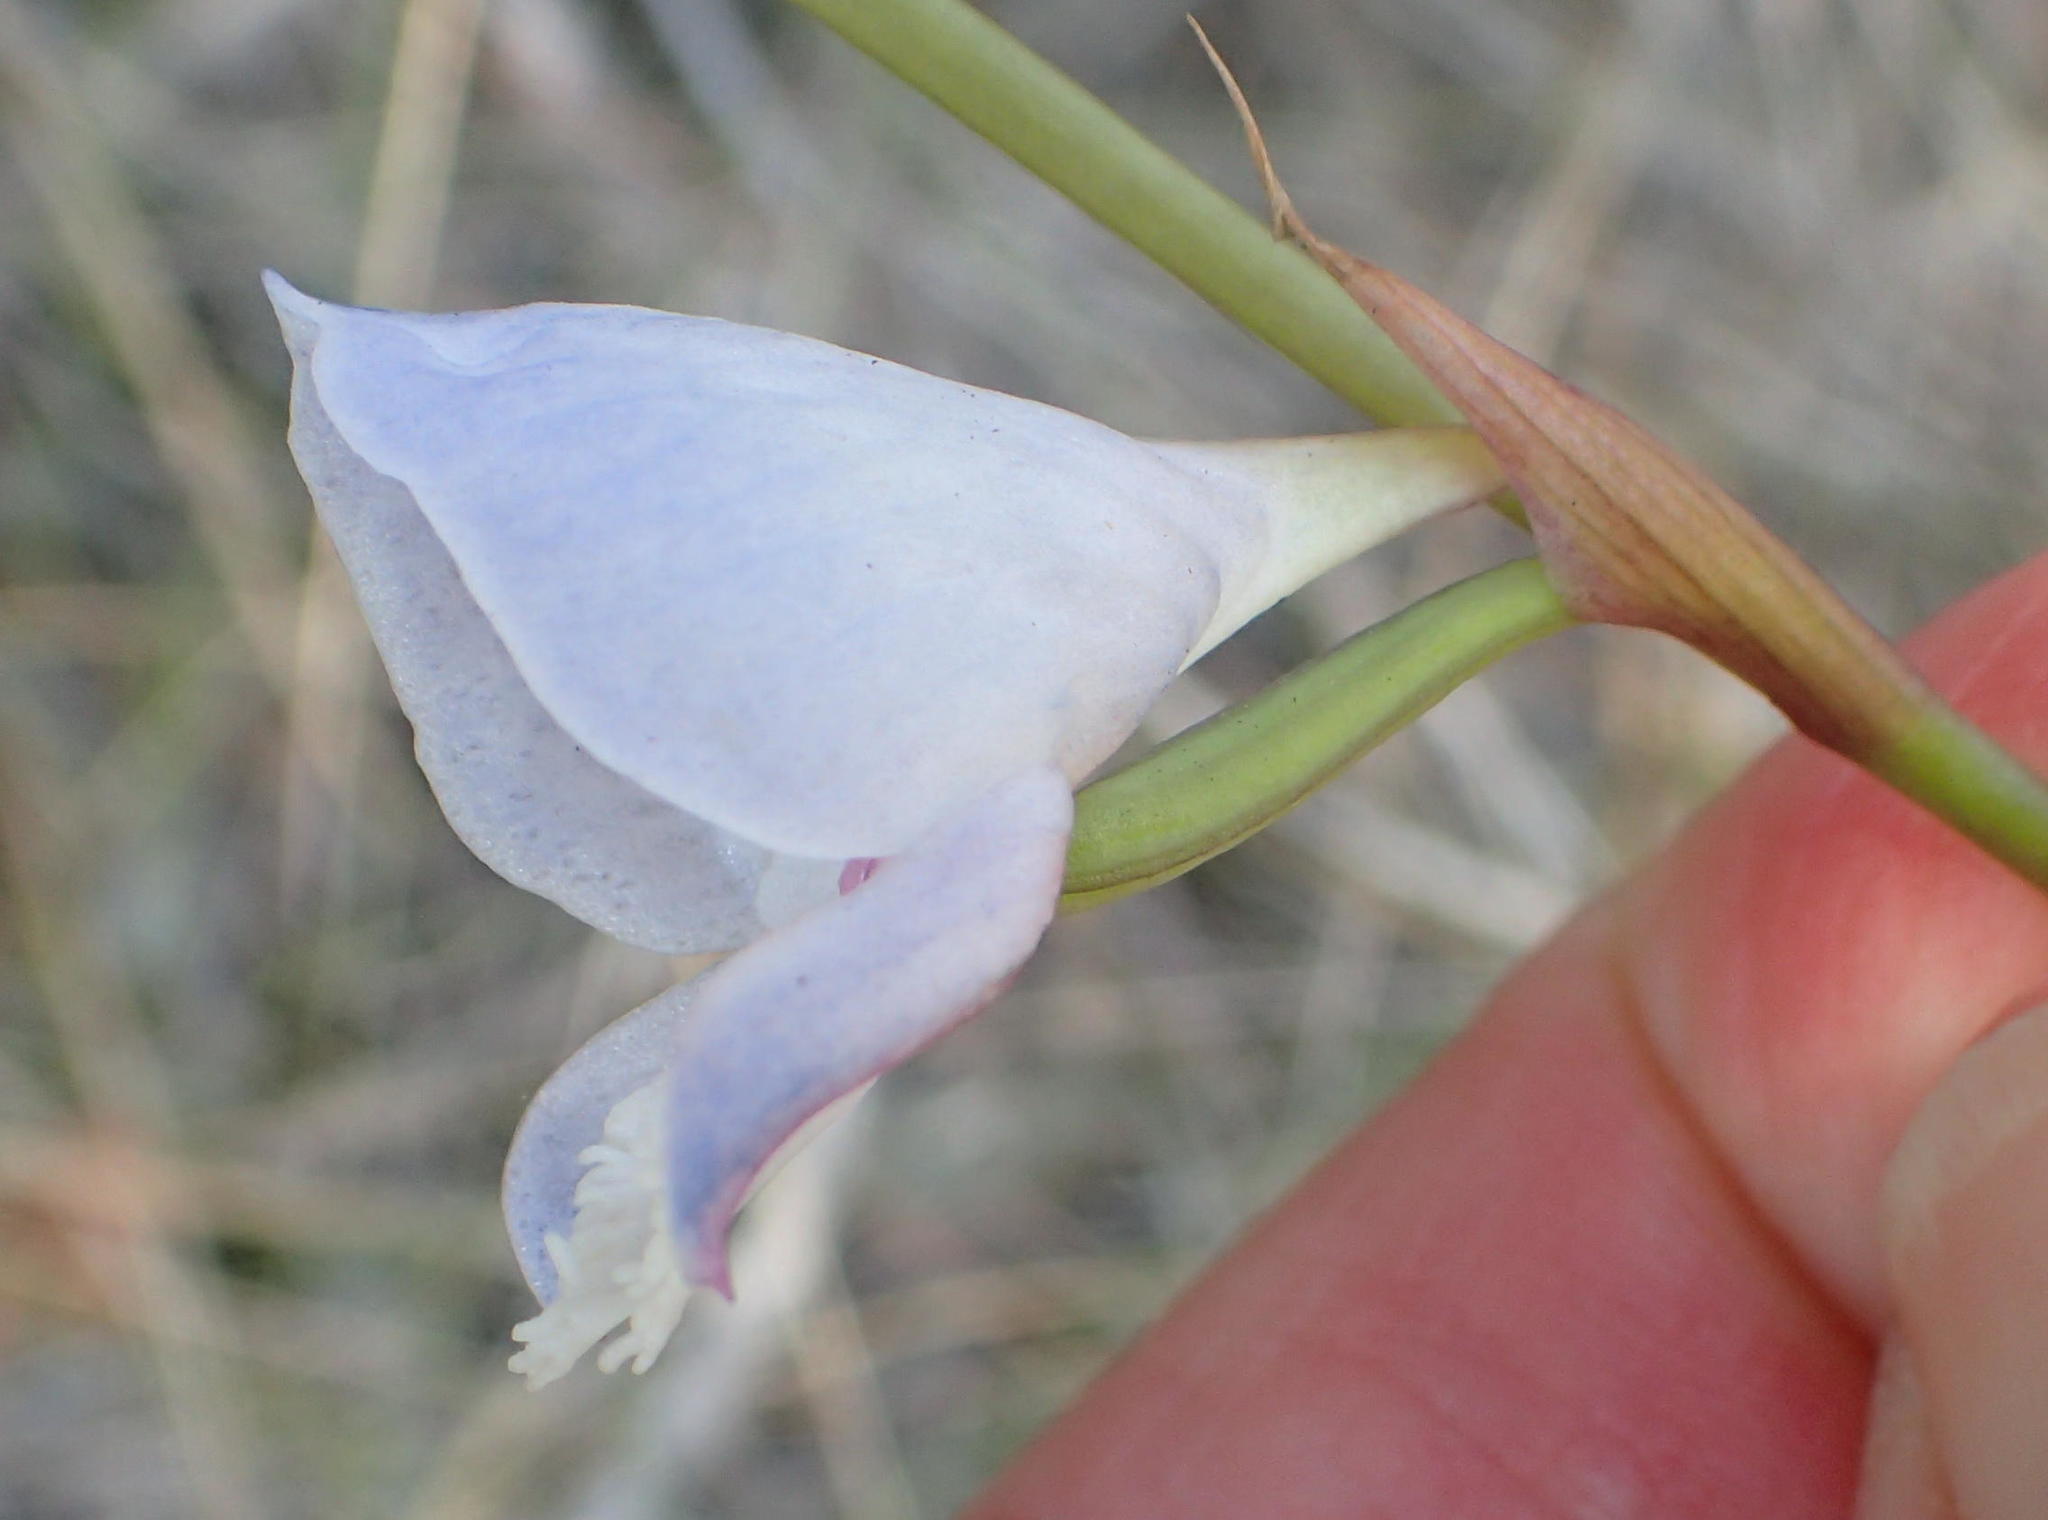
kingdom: Plantae
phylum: Tracheophyta
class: Liliopsida
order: Asparagales
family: Orchidaceae
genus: Disa
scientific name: Disa hians
